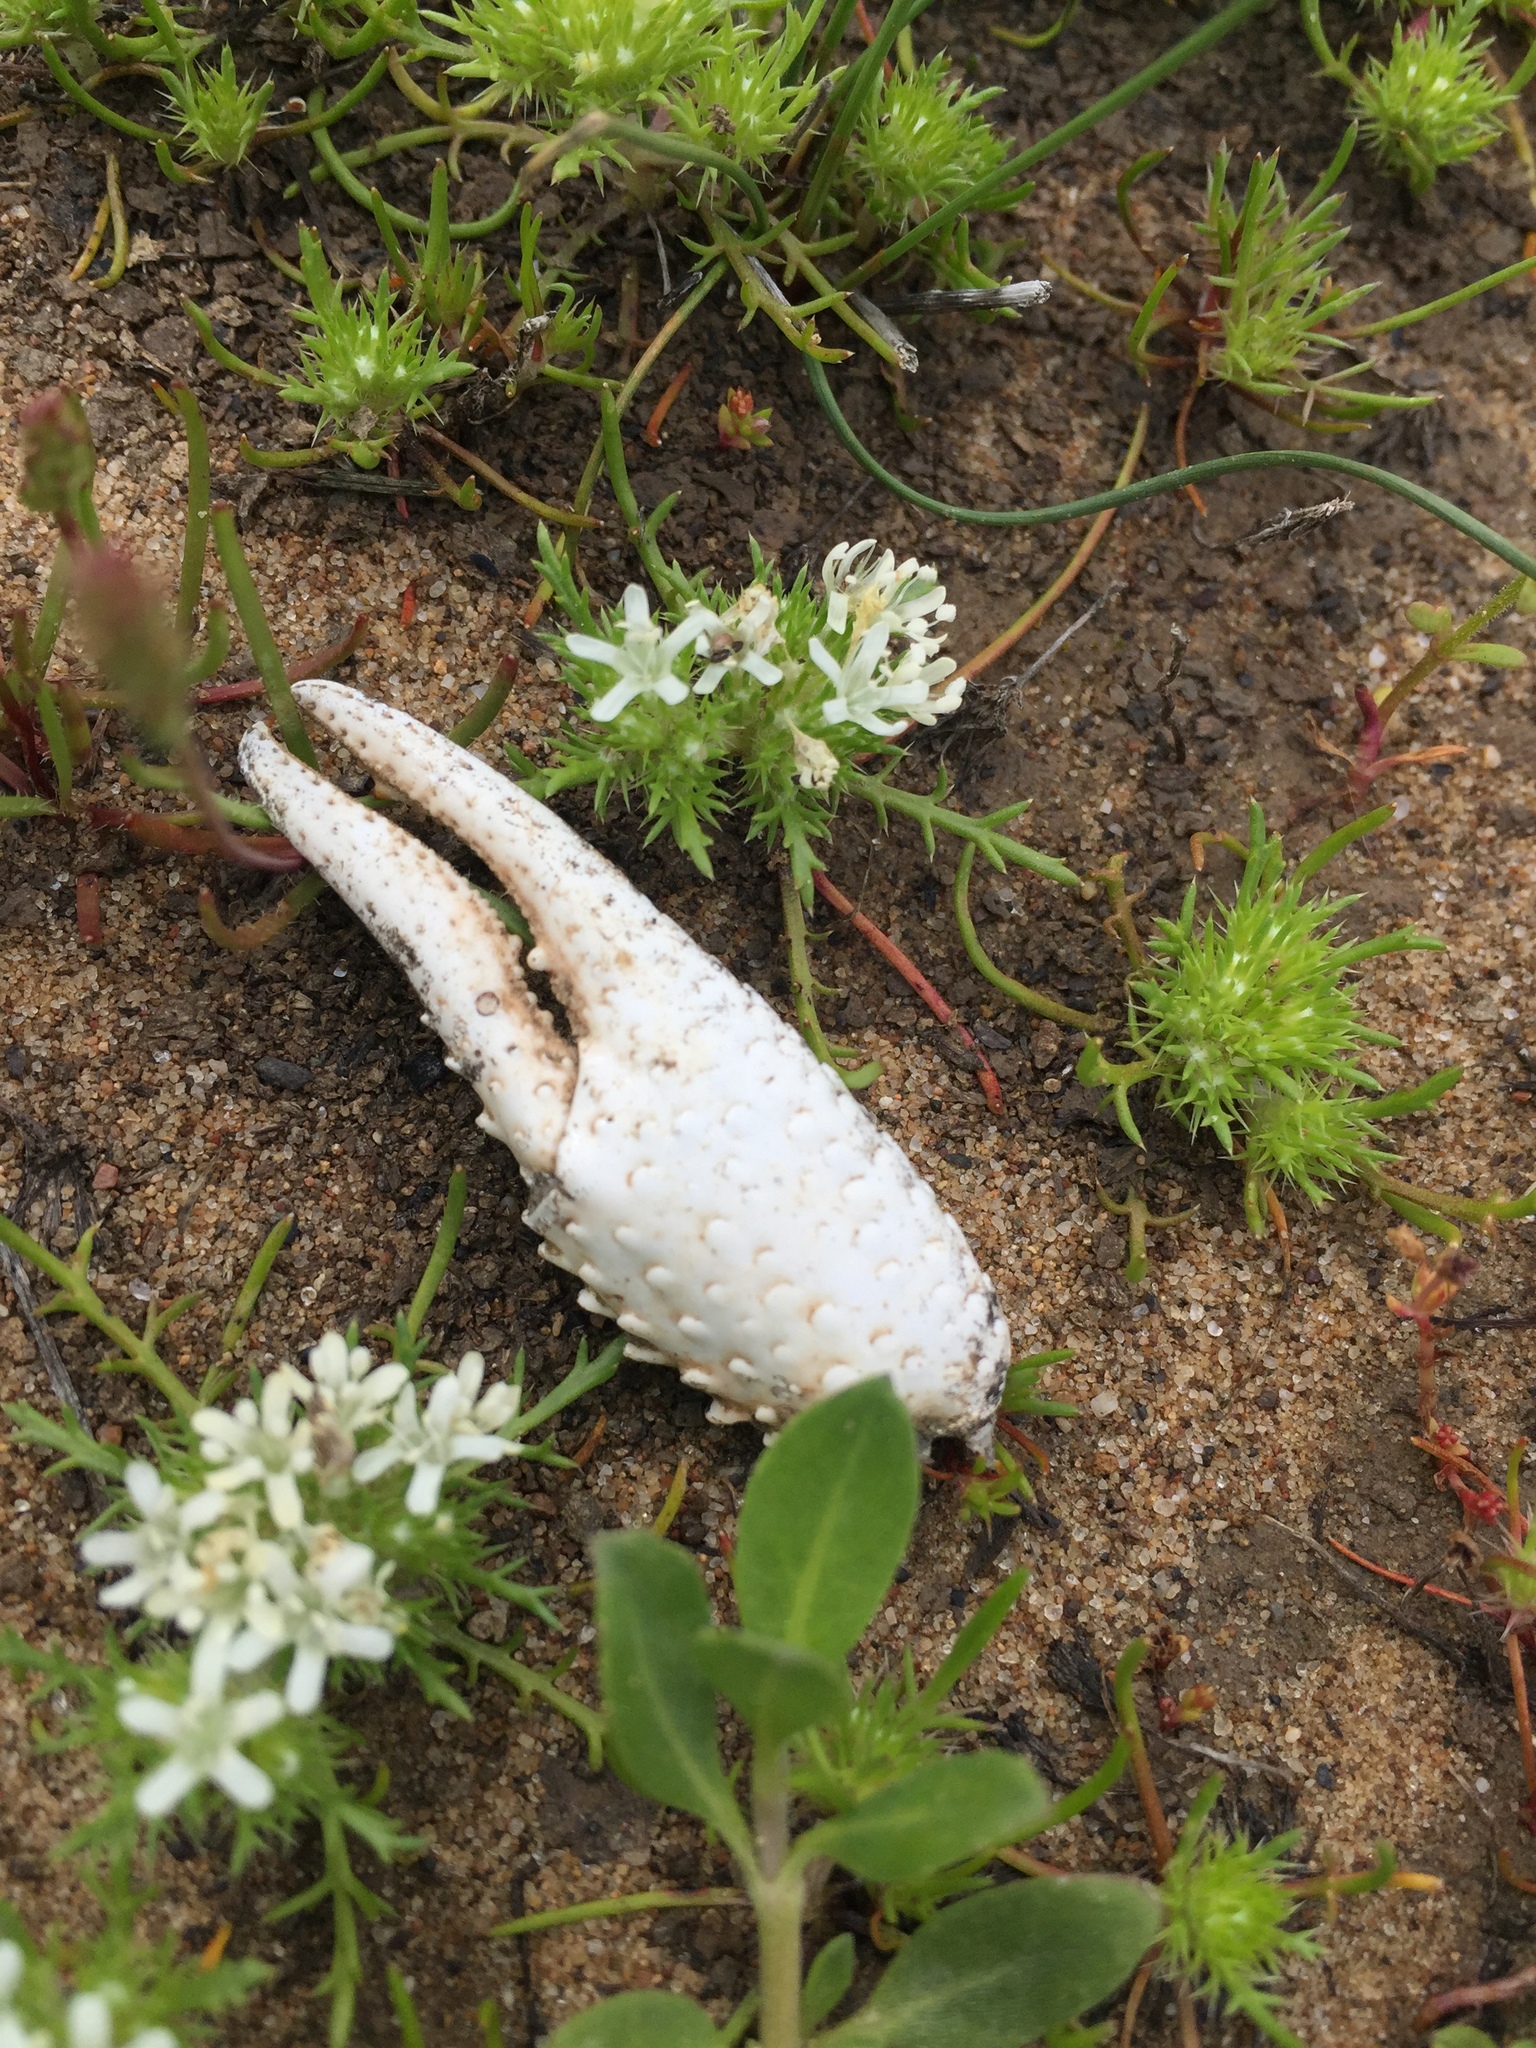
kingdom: Animalia
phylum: Arthropoda
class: Malacostraca
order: Decapoda
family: Cambaridae
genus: Procambarus
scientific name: Procambarus clarkii
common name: Red swamp crayfish
